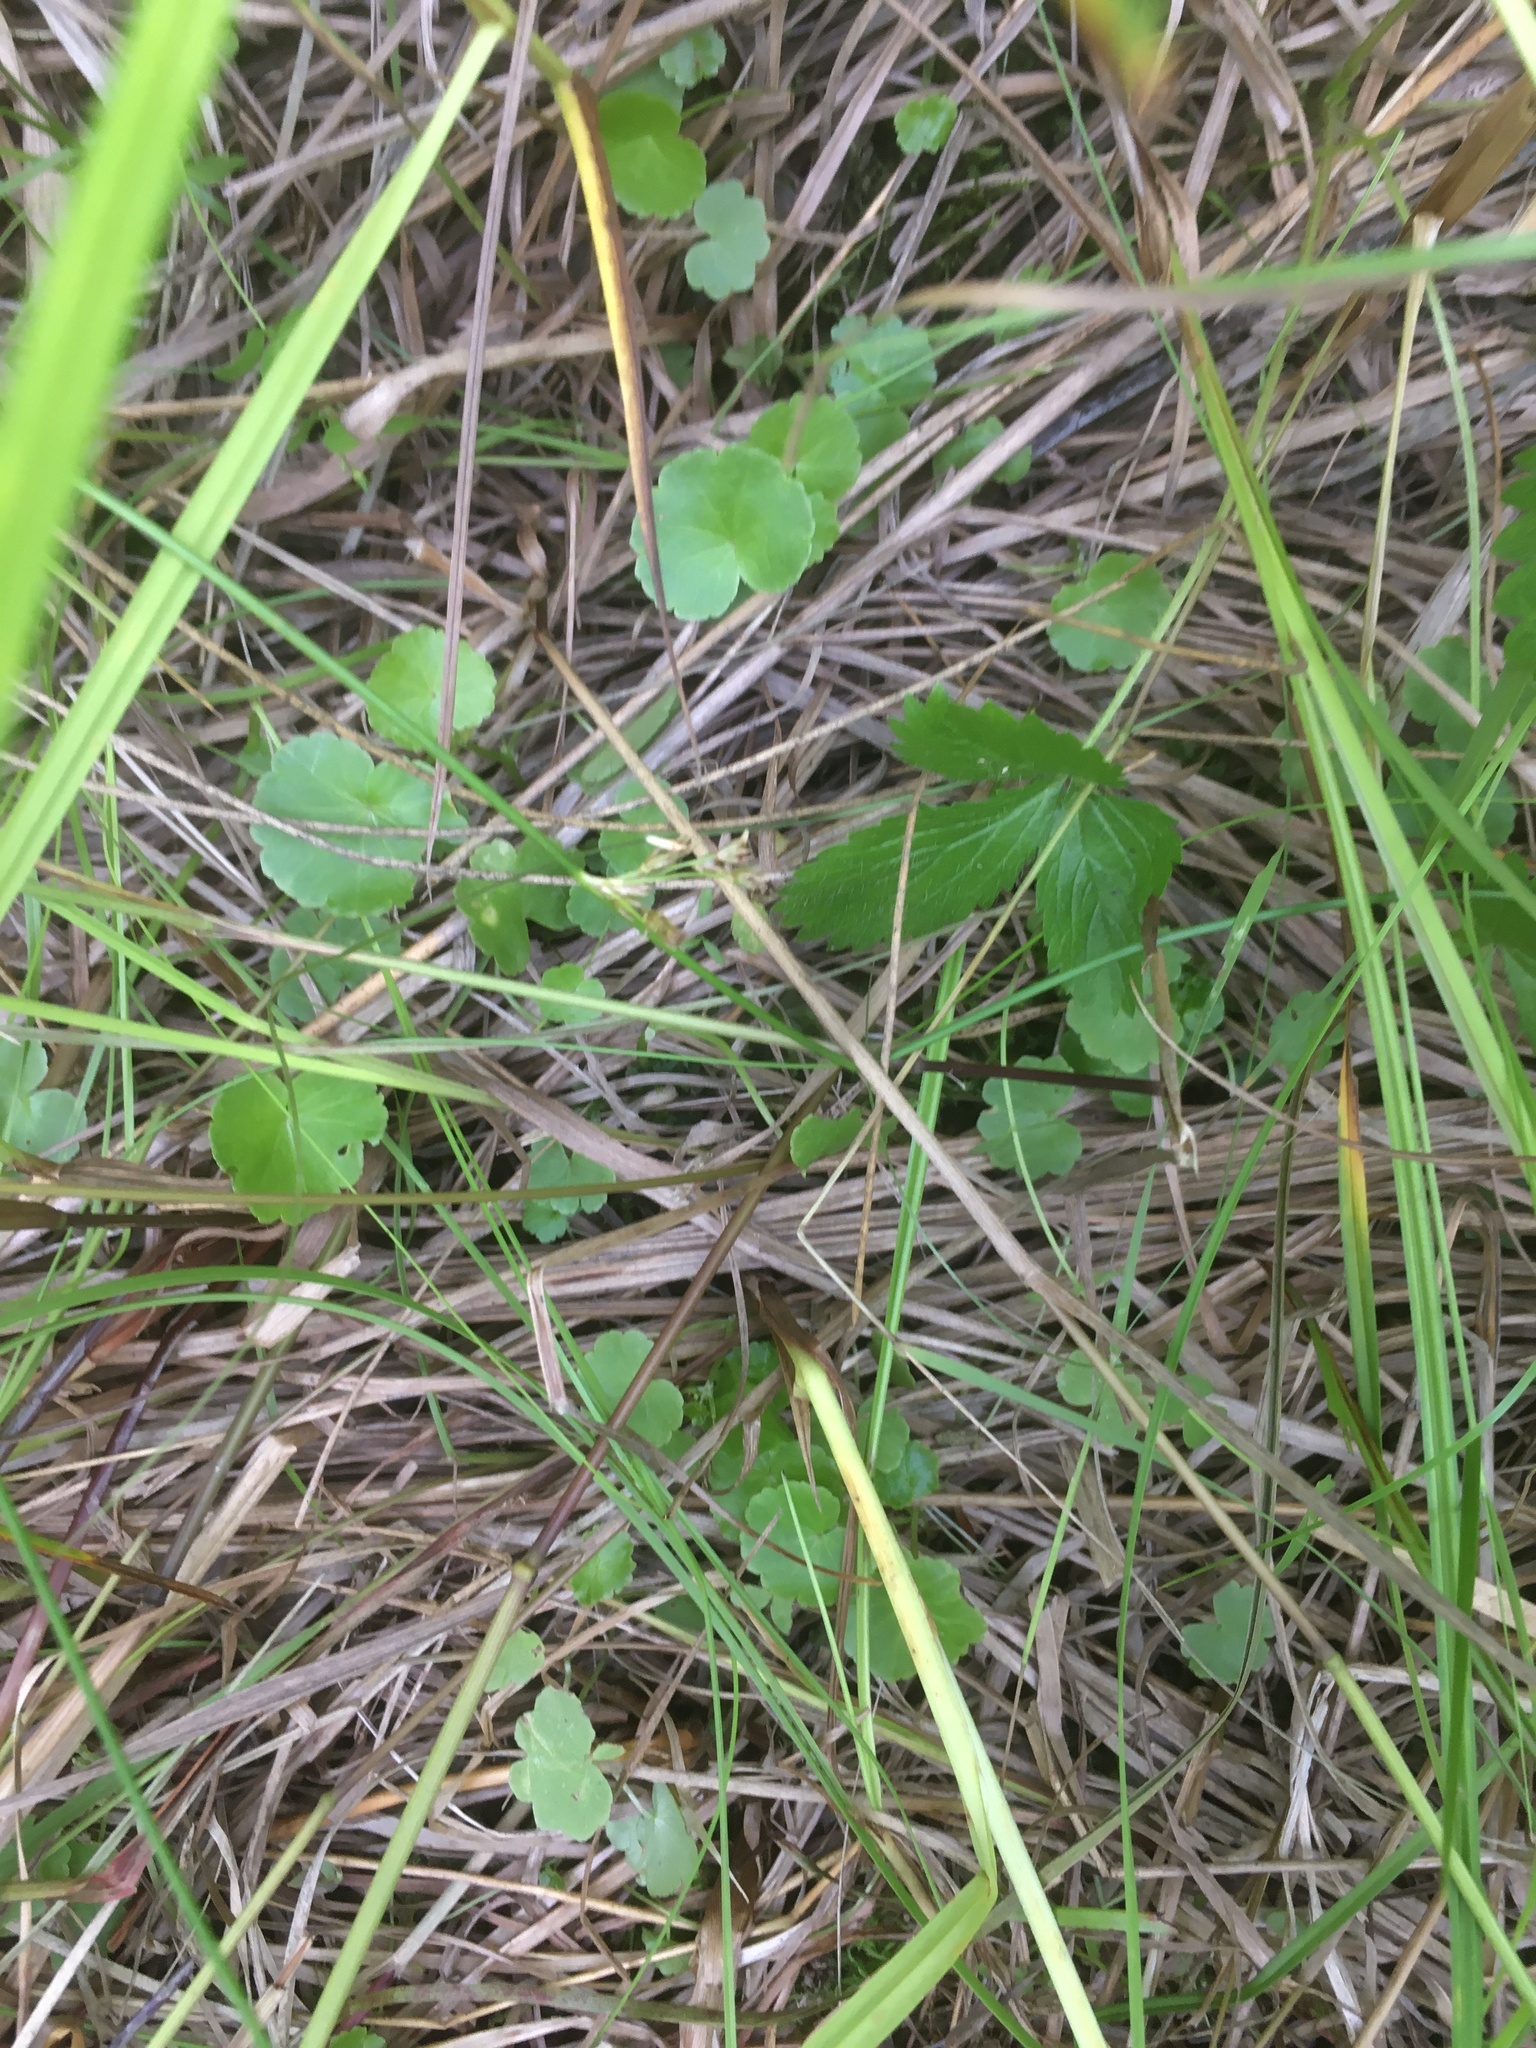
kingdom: Plantae
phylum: Tracheophyta
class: Magnoliopsida
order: Apiales
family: Araliaceae
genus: Hydrocotyle
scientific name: Hydrocotyle americana
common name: American water-pennywort
